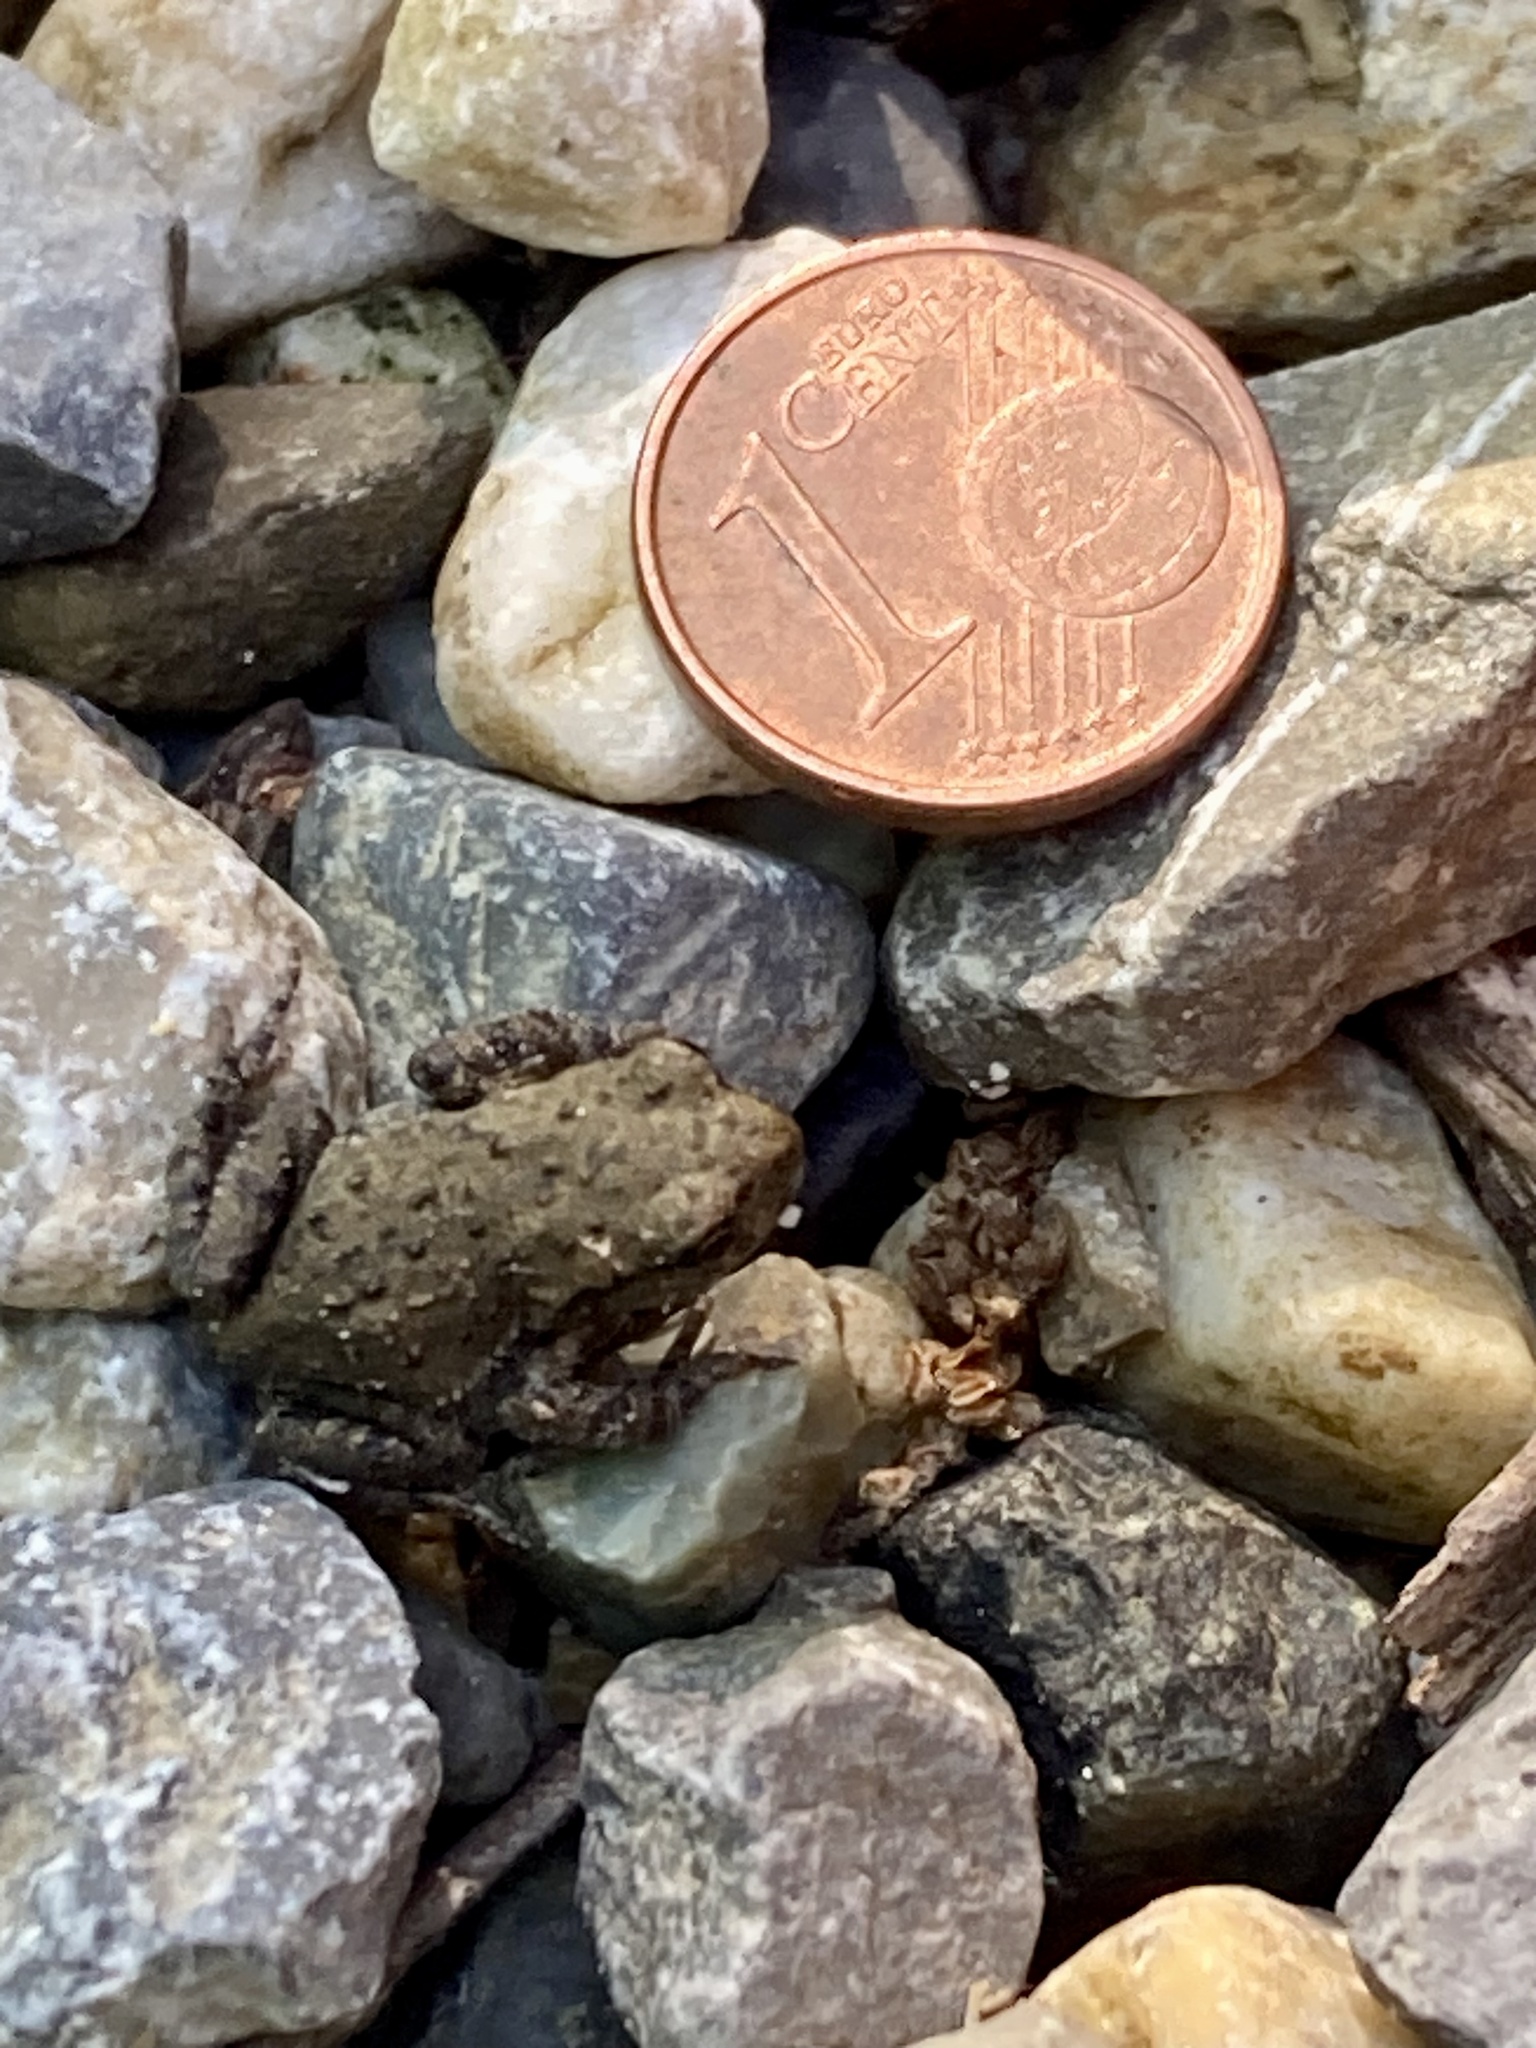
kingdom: Animalia
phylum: Chordata
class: Amphibia
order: Anura
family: Bufonidae
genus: Bufo
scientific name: Bufo bufo
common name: Common toad
